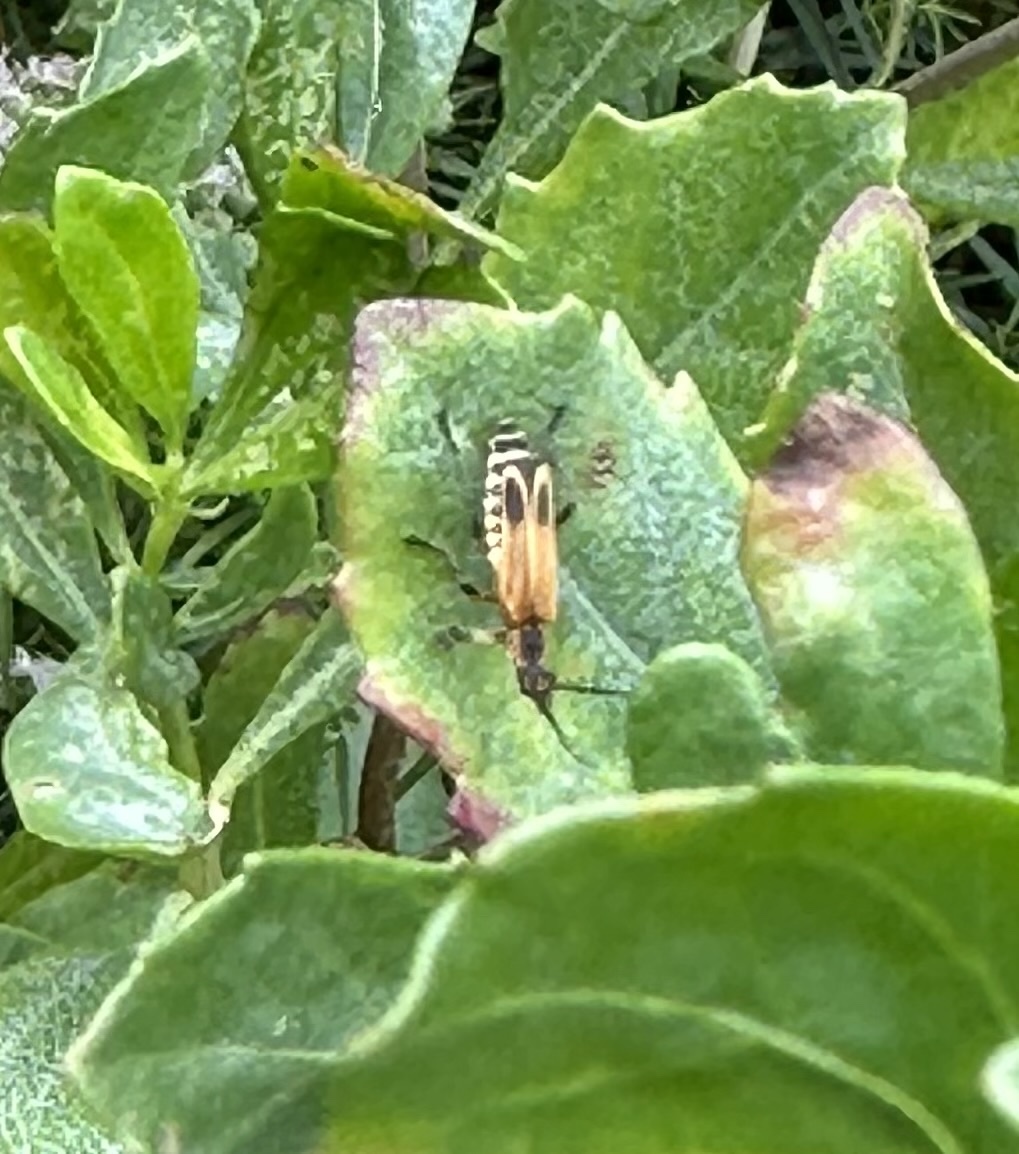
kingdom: Animalia
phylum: Arthropoda
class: Insecta
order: Coleoptera
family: Cantharidae
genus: Chauliognathus
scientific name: Chauliognathus marginatus
